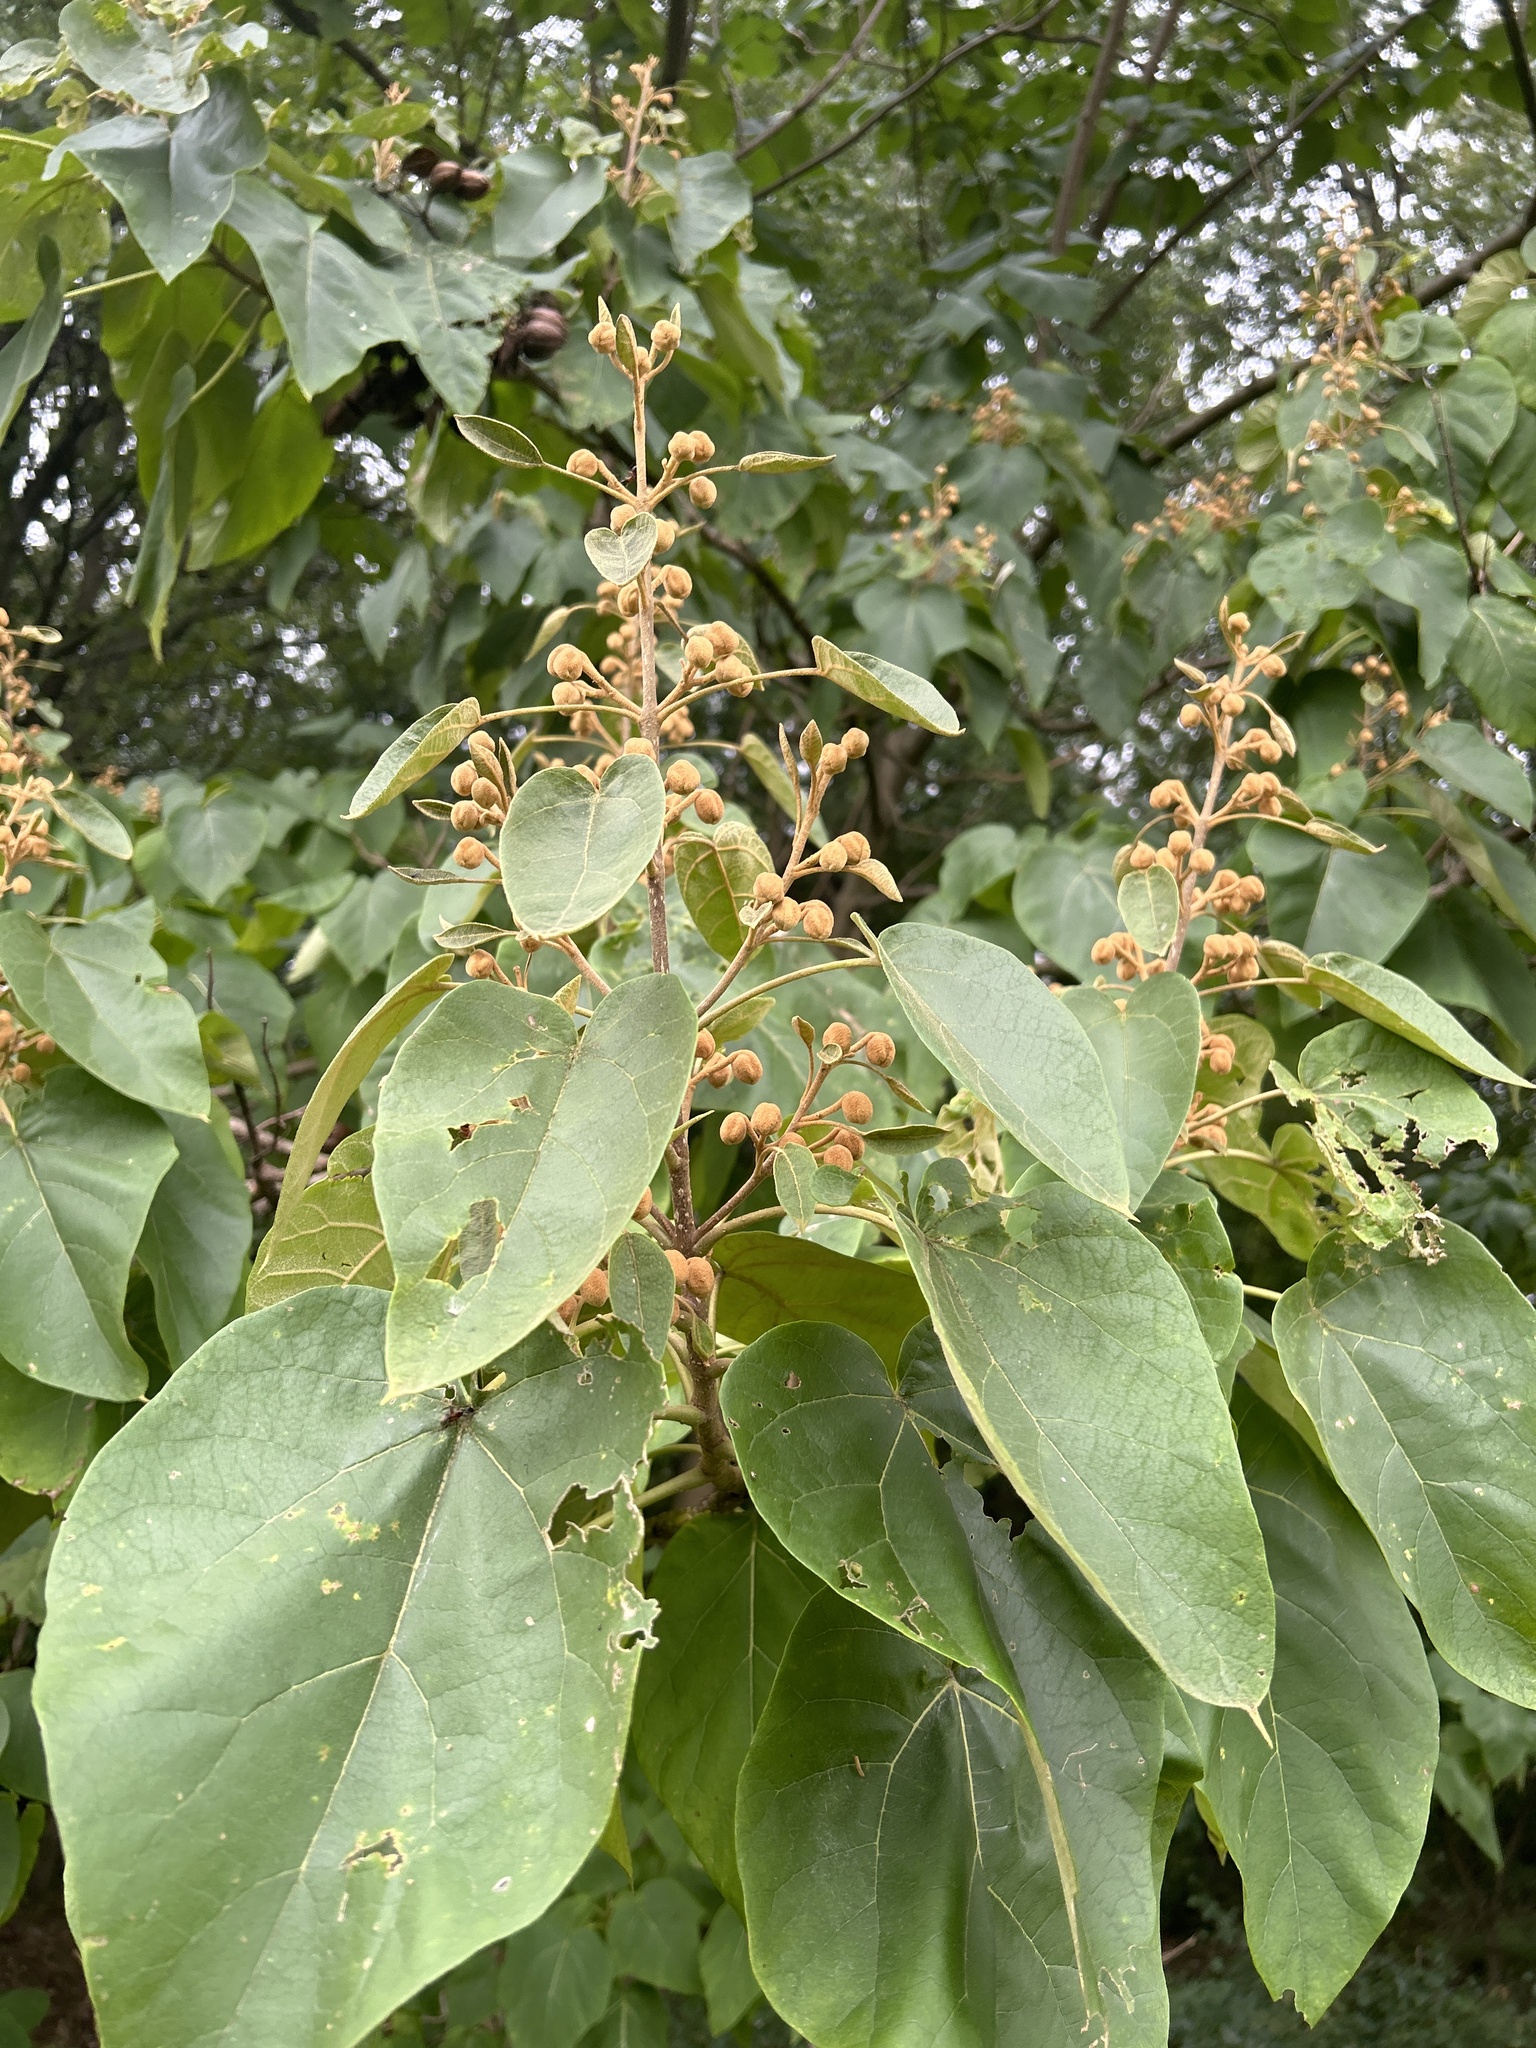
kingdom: Plantae
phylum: Tracheophyta
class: Magnoliopsida
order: Lamiales
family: Paulowniaceae
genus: Paulownia
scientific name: Paulownia tomentosa
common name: Foxglove-tree
